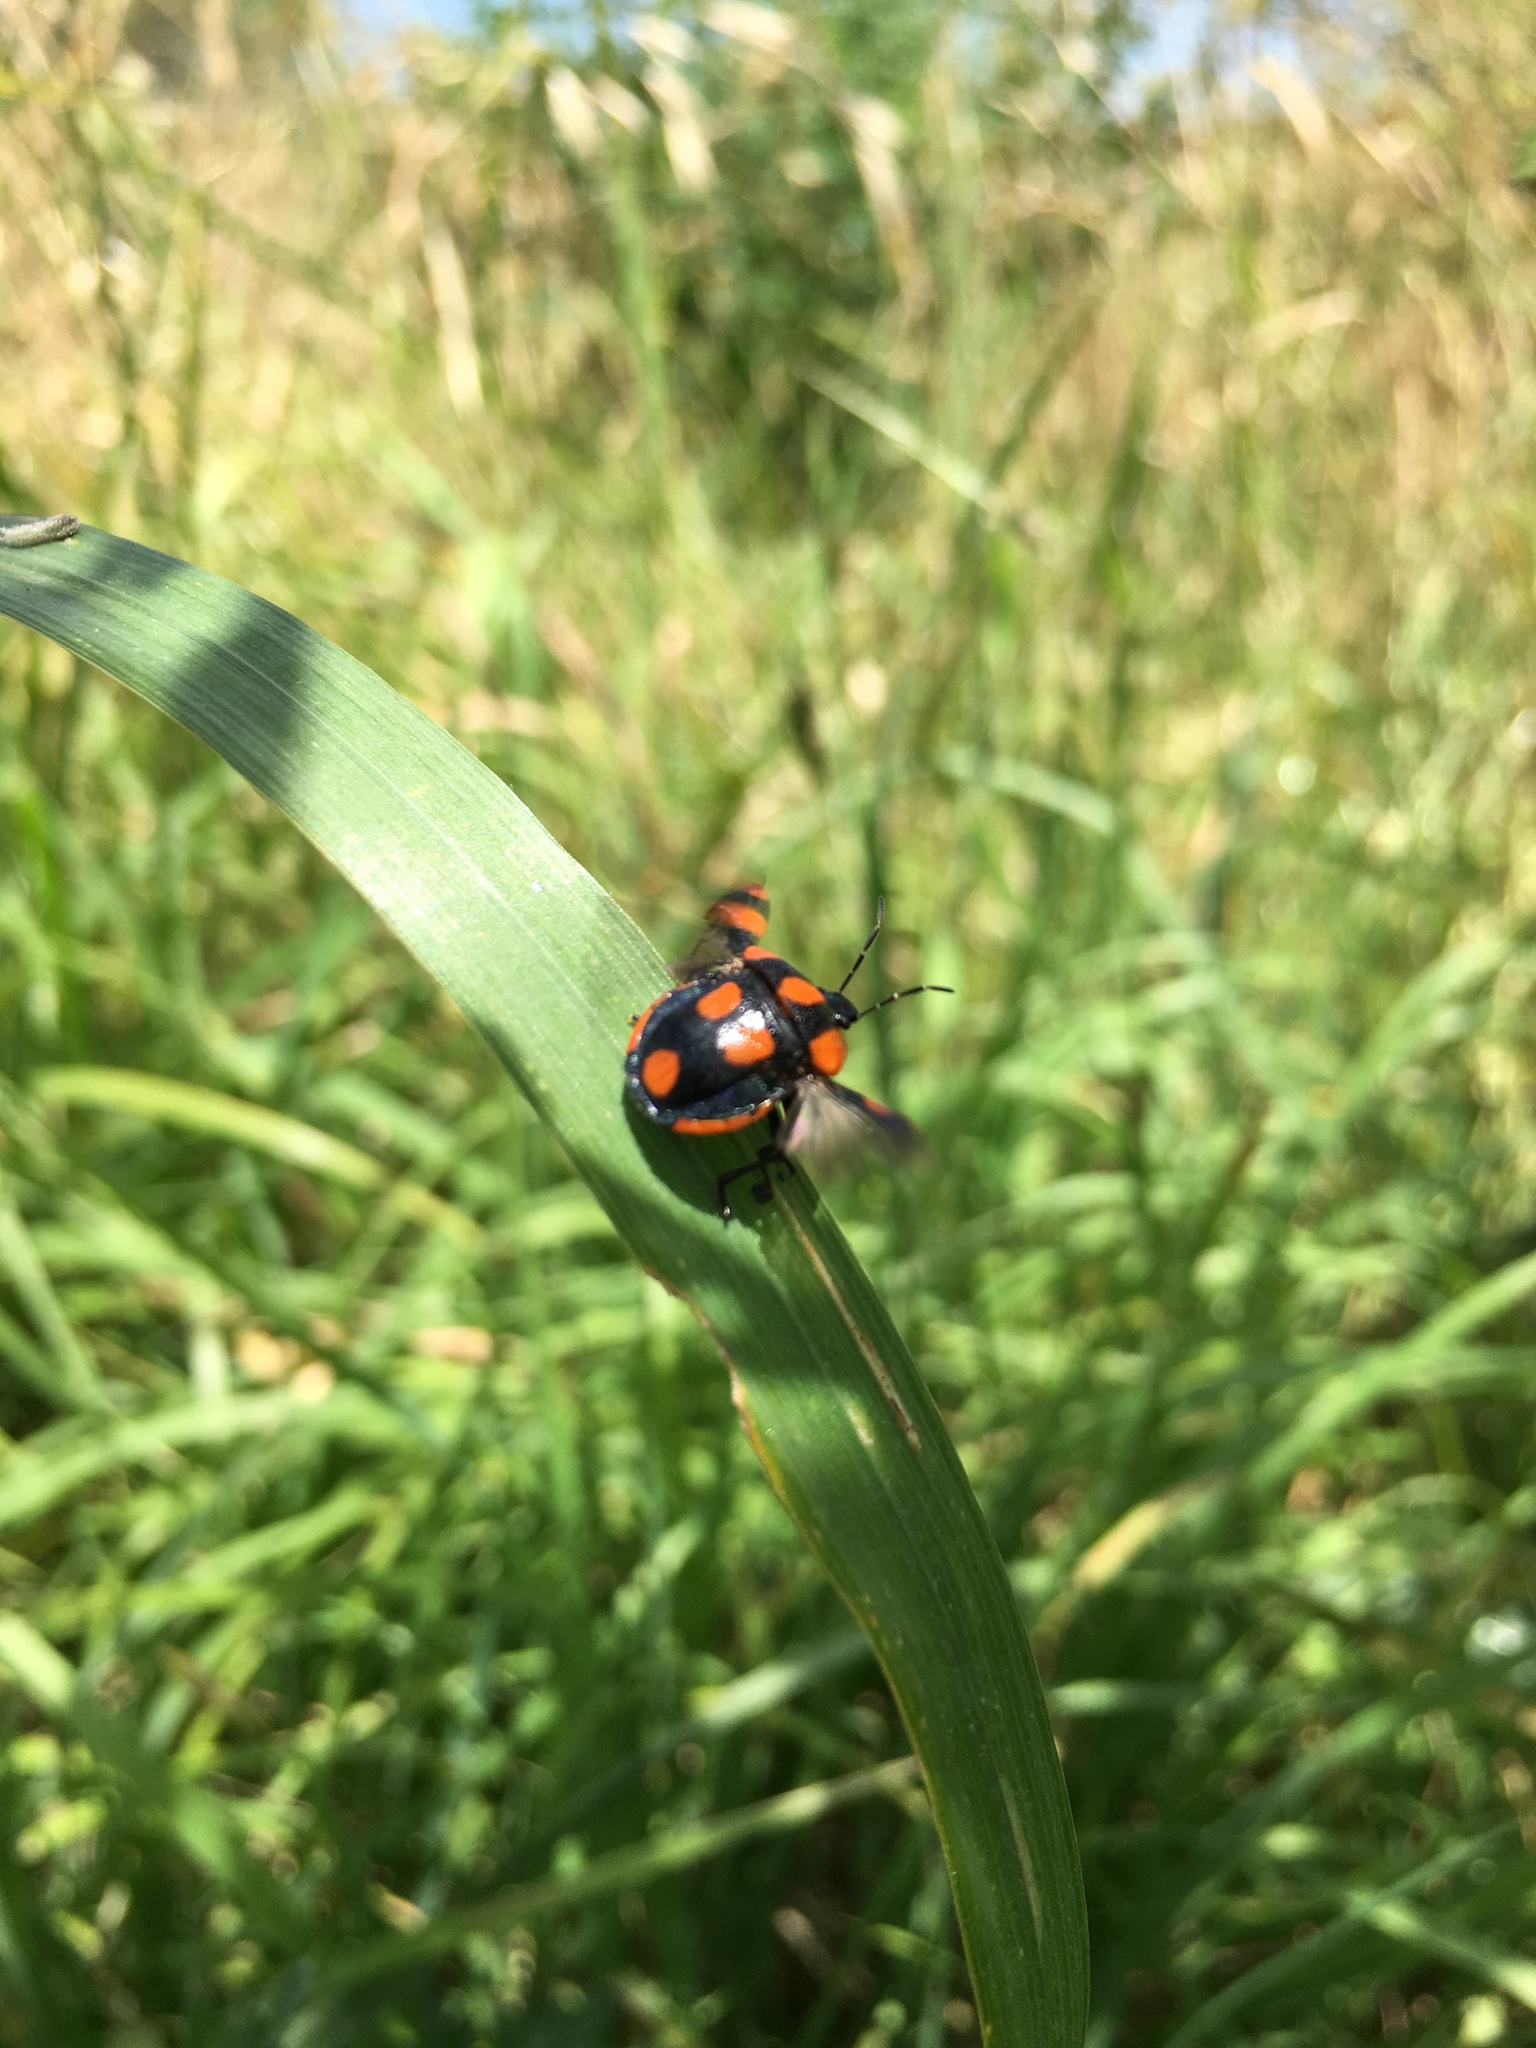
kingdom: Animalia
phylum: Arthropoda
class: Insecta
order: Hemiptera
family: Pentatomidae
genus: Stiretrus
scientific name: Stiretrus
